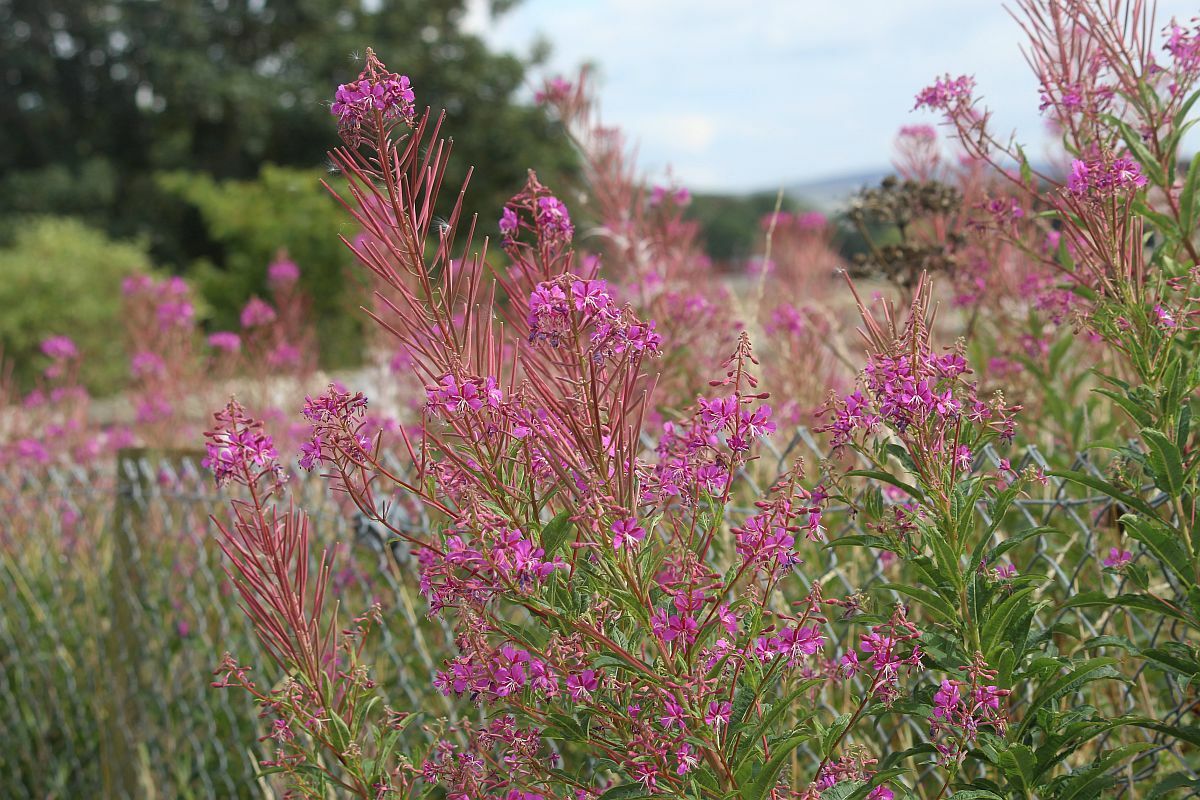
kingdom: Plantae
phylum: Tracheophyta
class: Magnoliopsida
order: Myrtales
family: Onagraceae
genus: Chamaenerion
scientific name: Chamaenerion angustifolium
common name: Fireweed
